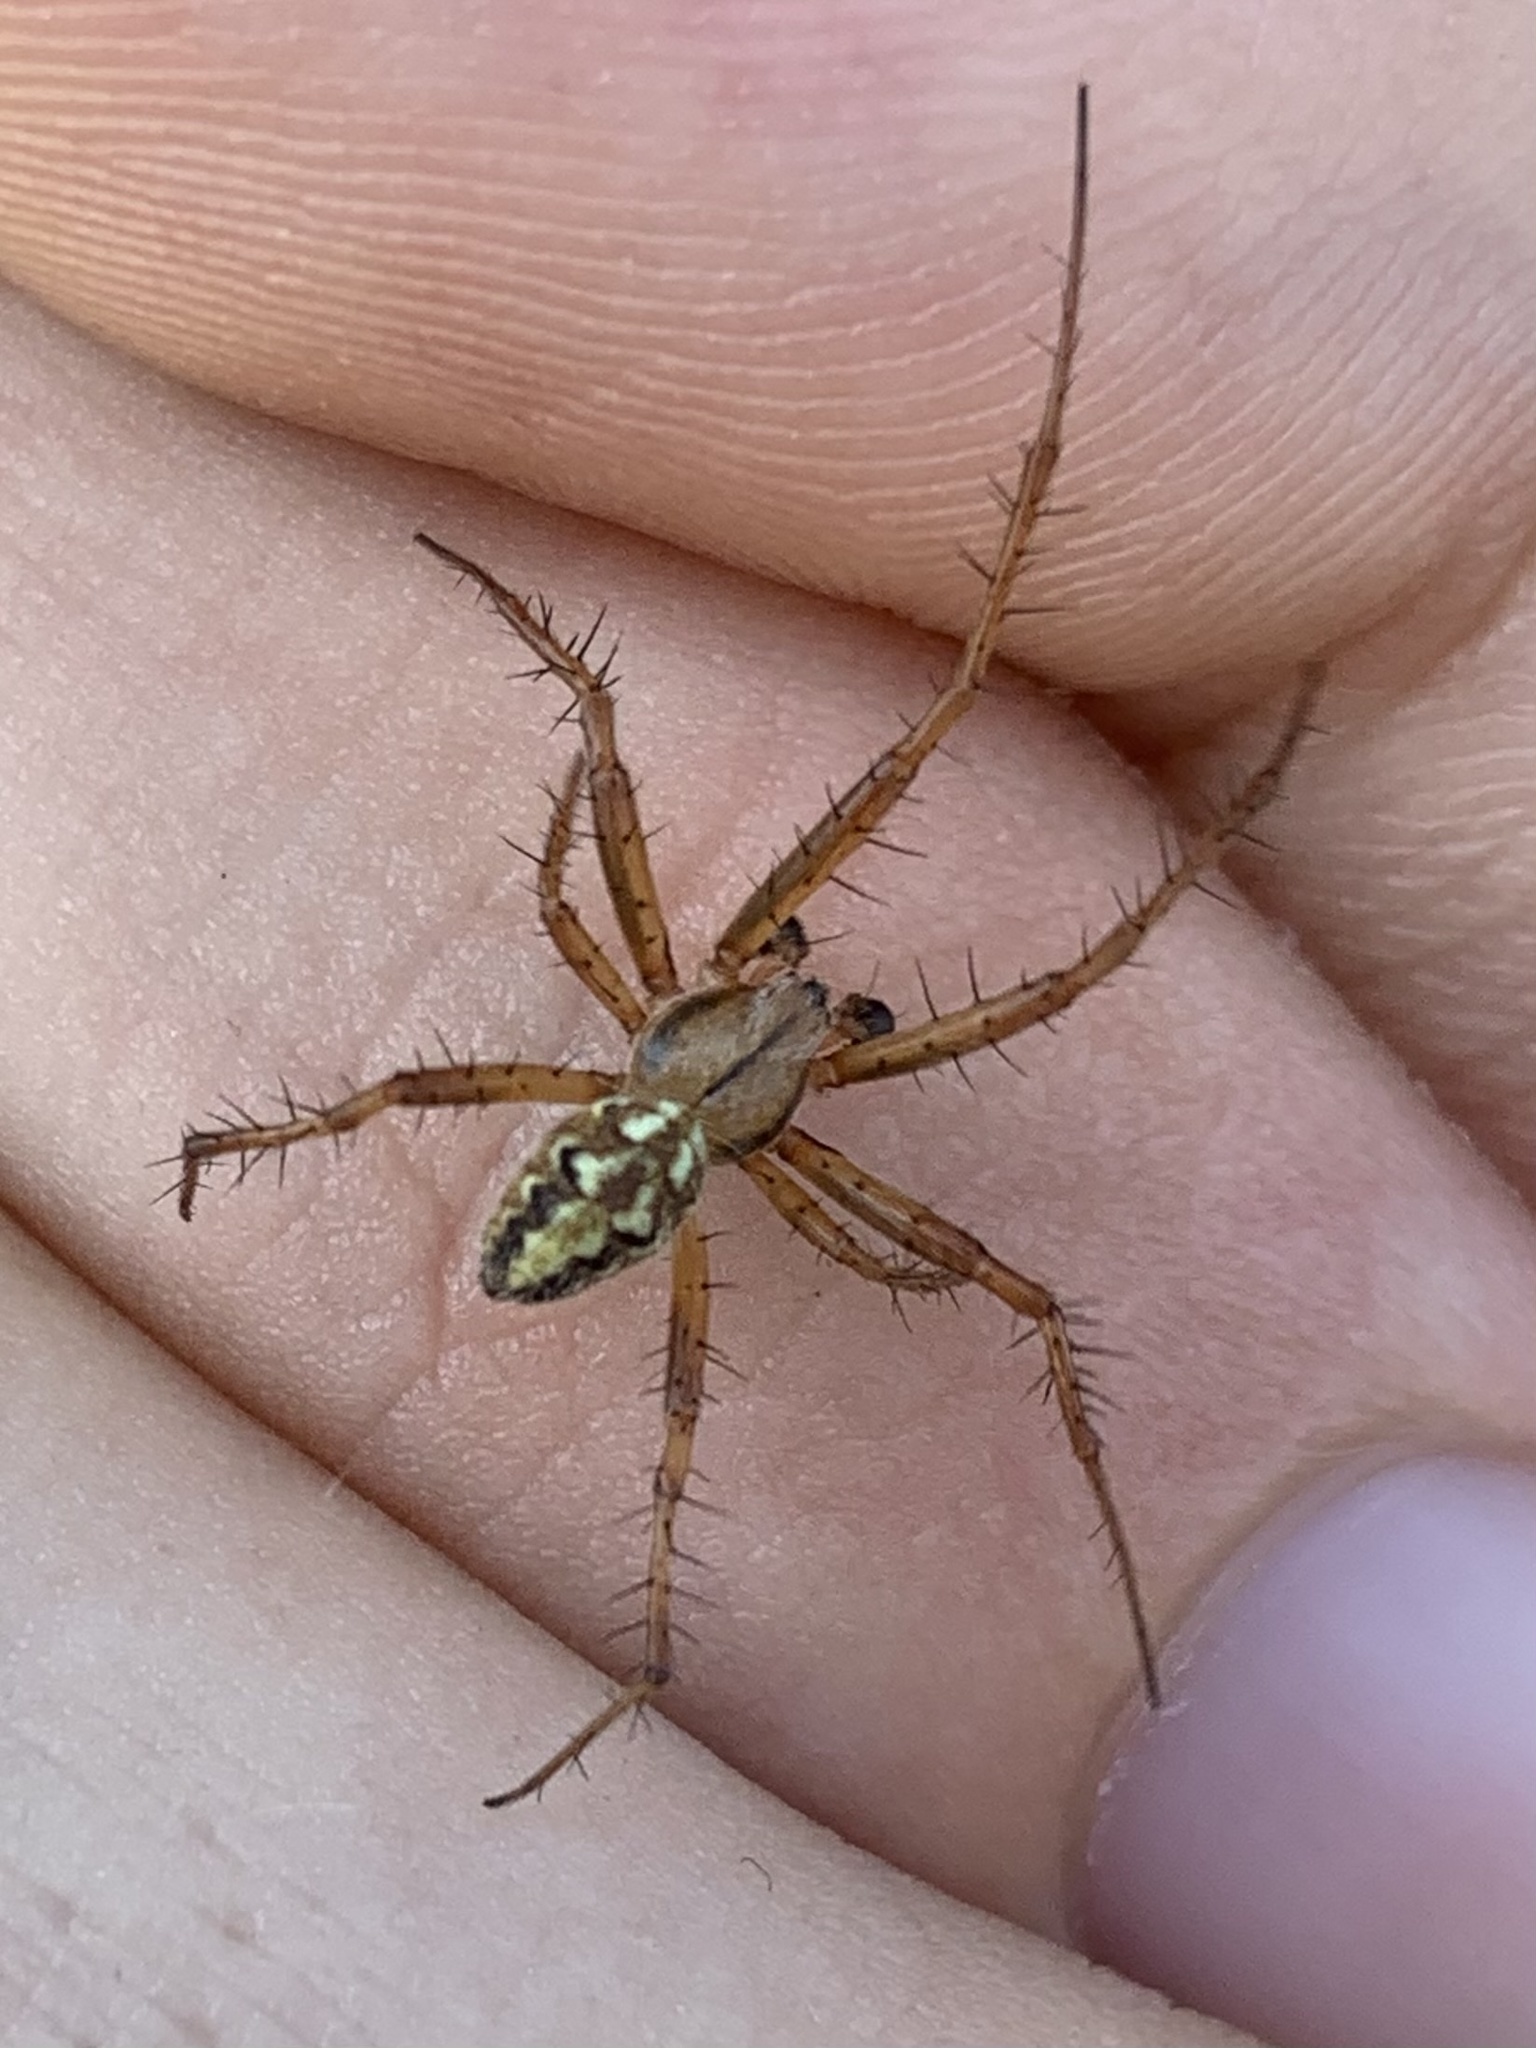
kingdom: Animalia
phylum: Arthropoda
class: Arachnida
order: Araneae
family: Araneidae
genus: Neoscona
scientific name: Neoscona adianta
